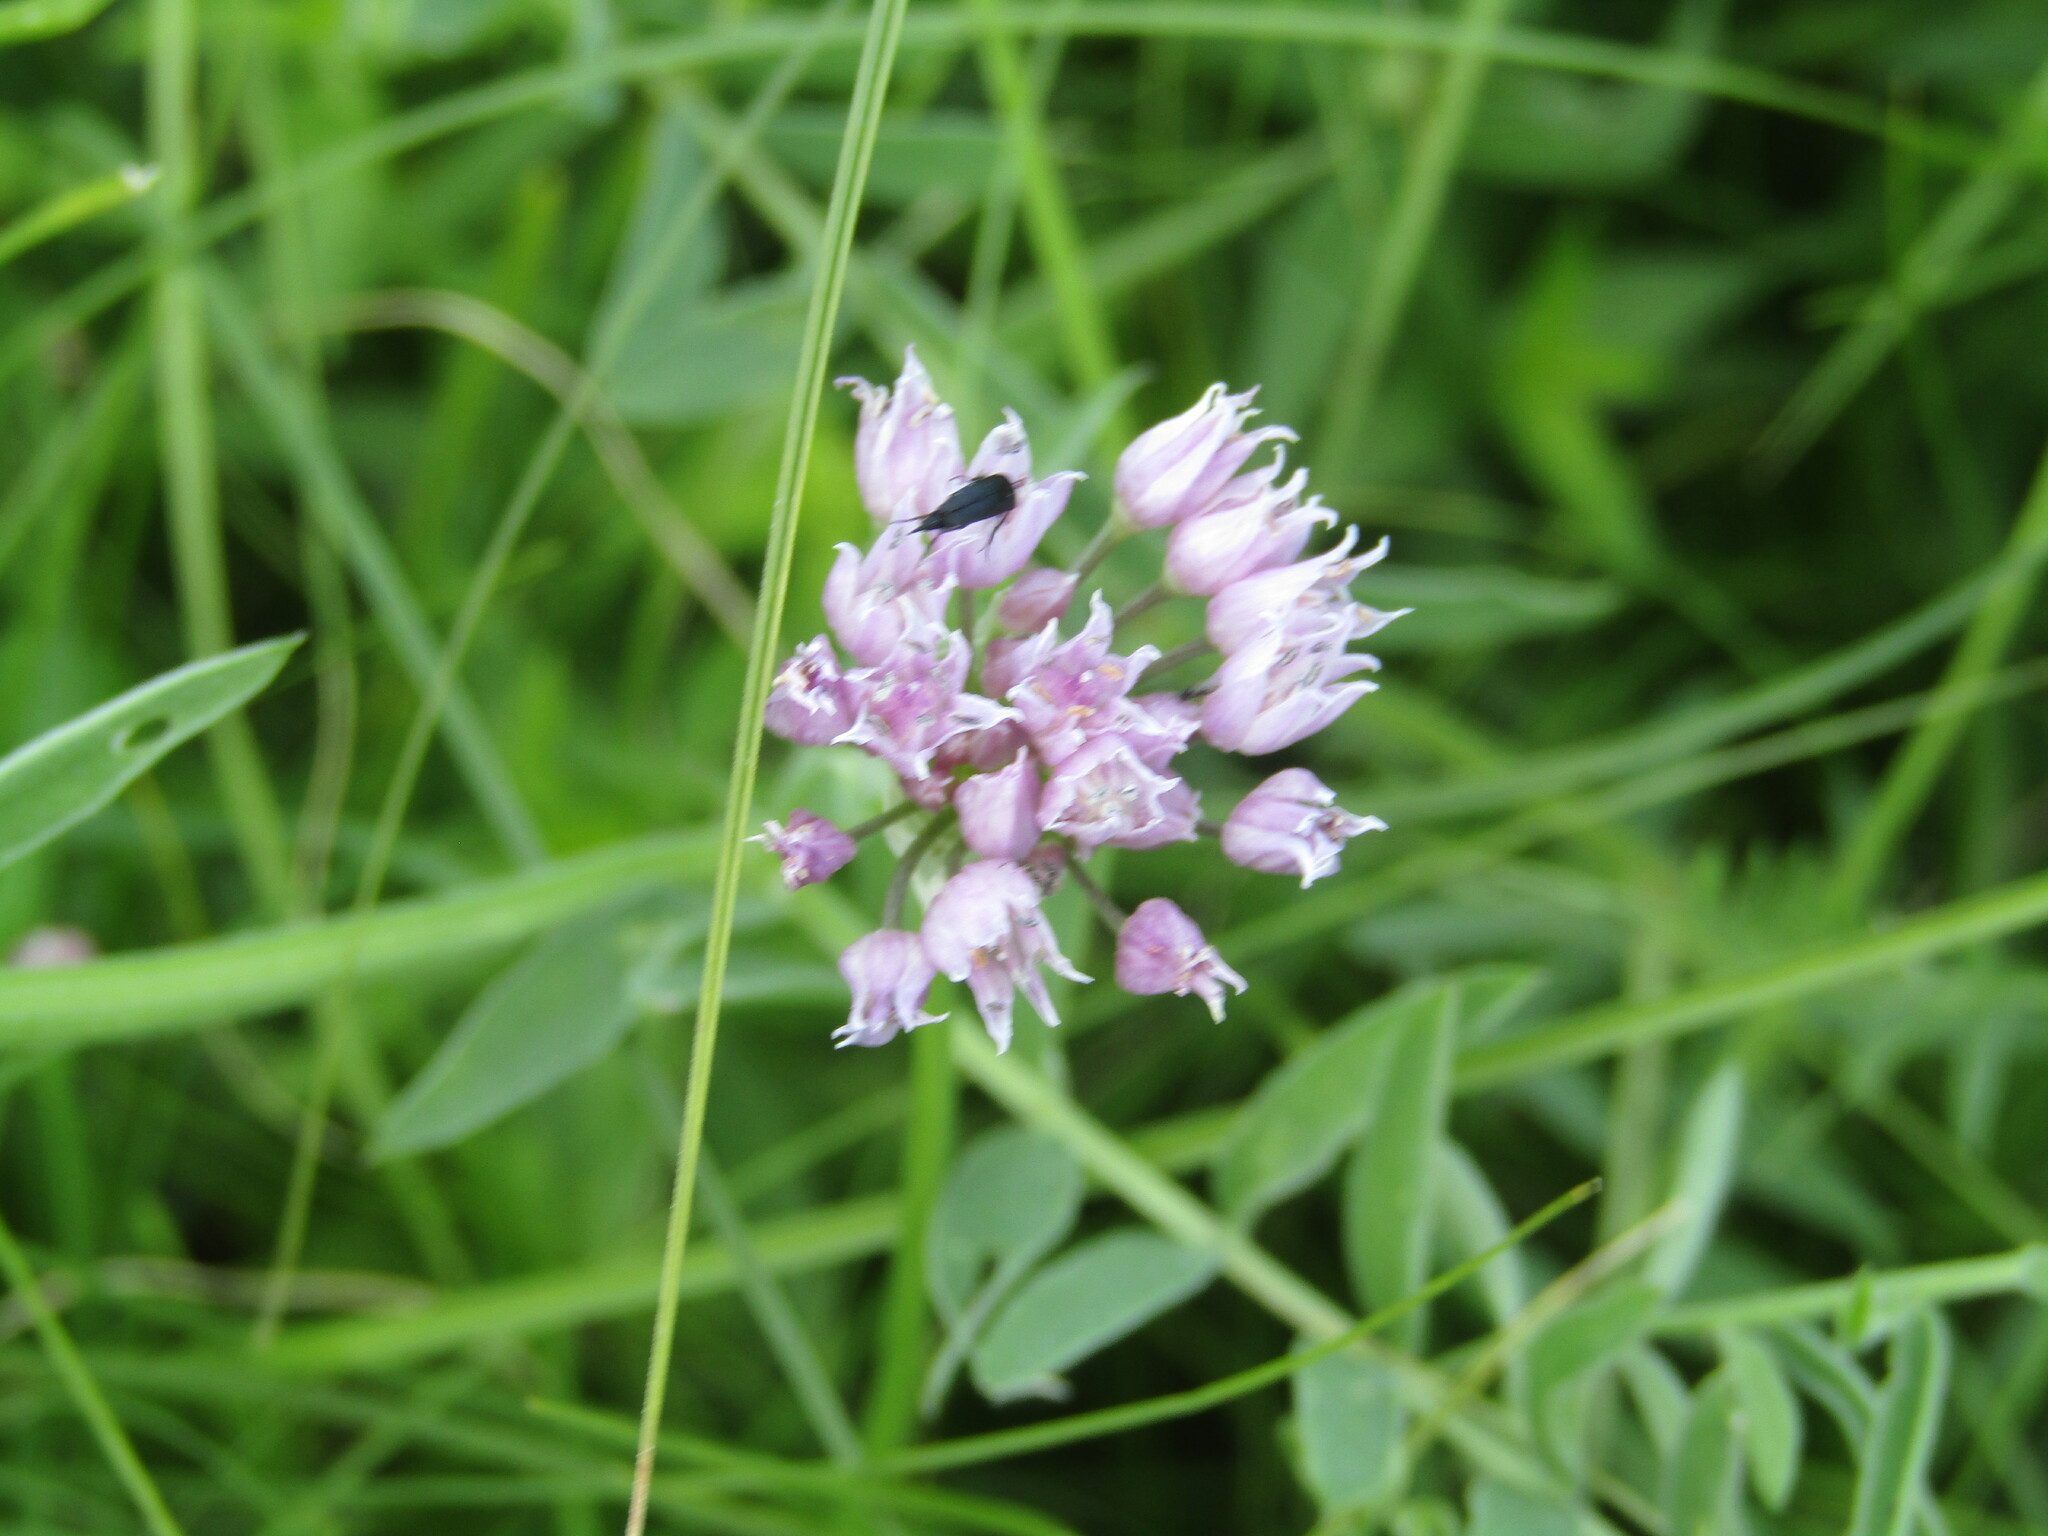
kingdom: Plantae
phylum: Tracheophyta
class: Liliopsida
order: Asparagales
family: Amaryllidaceae
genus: Allium
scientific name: Allium angulosum
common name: Mouse garlic
